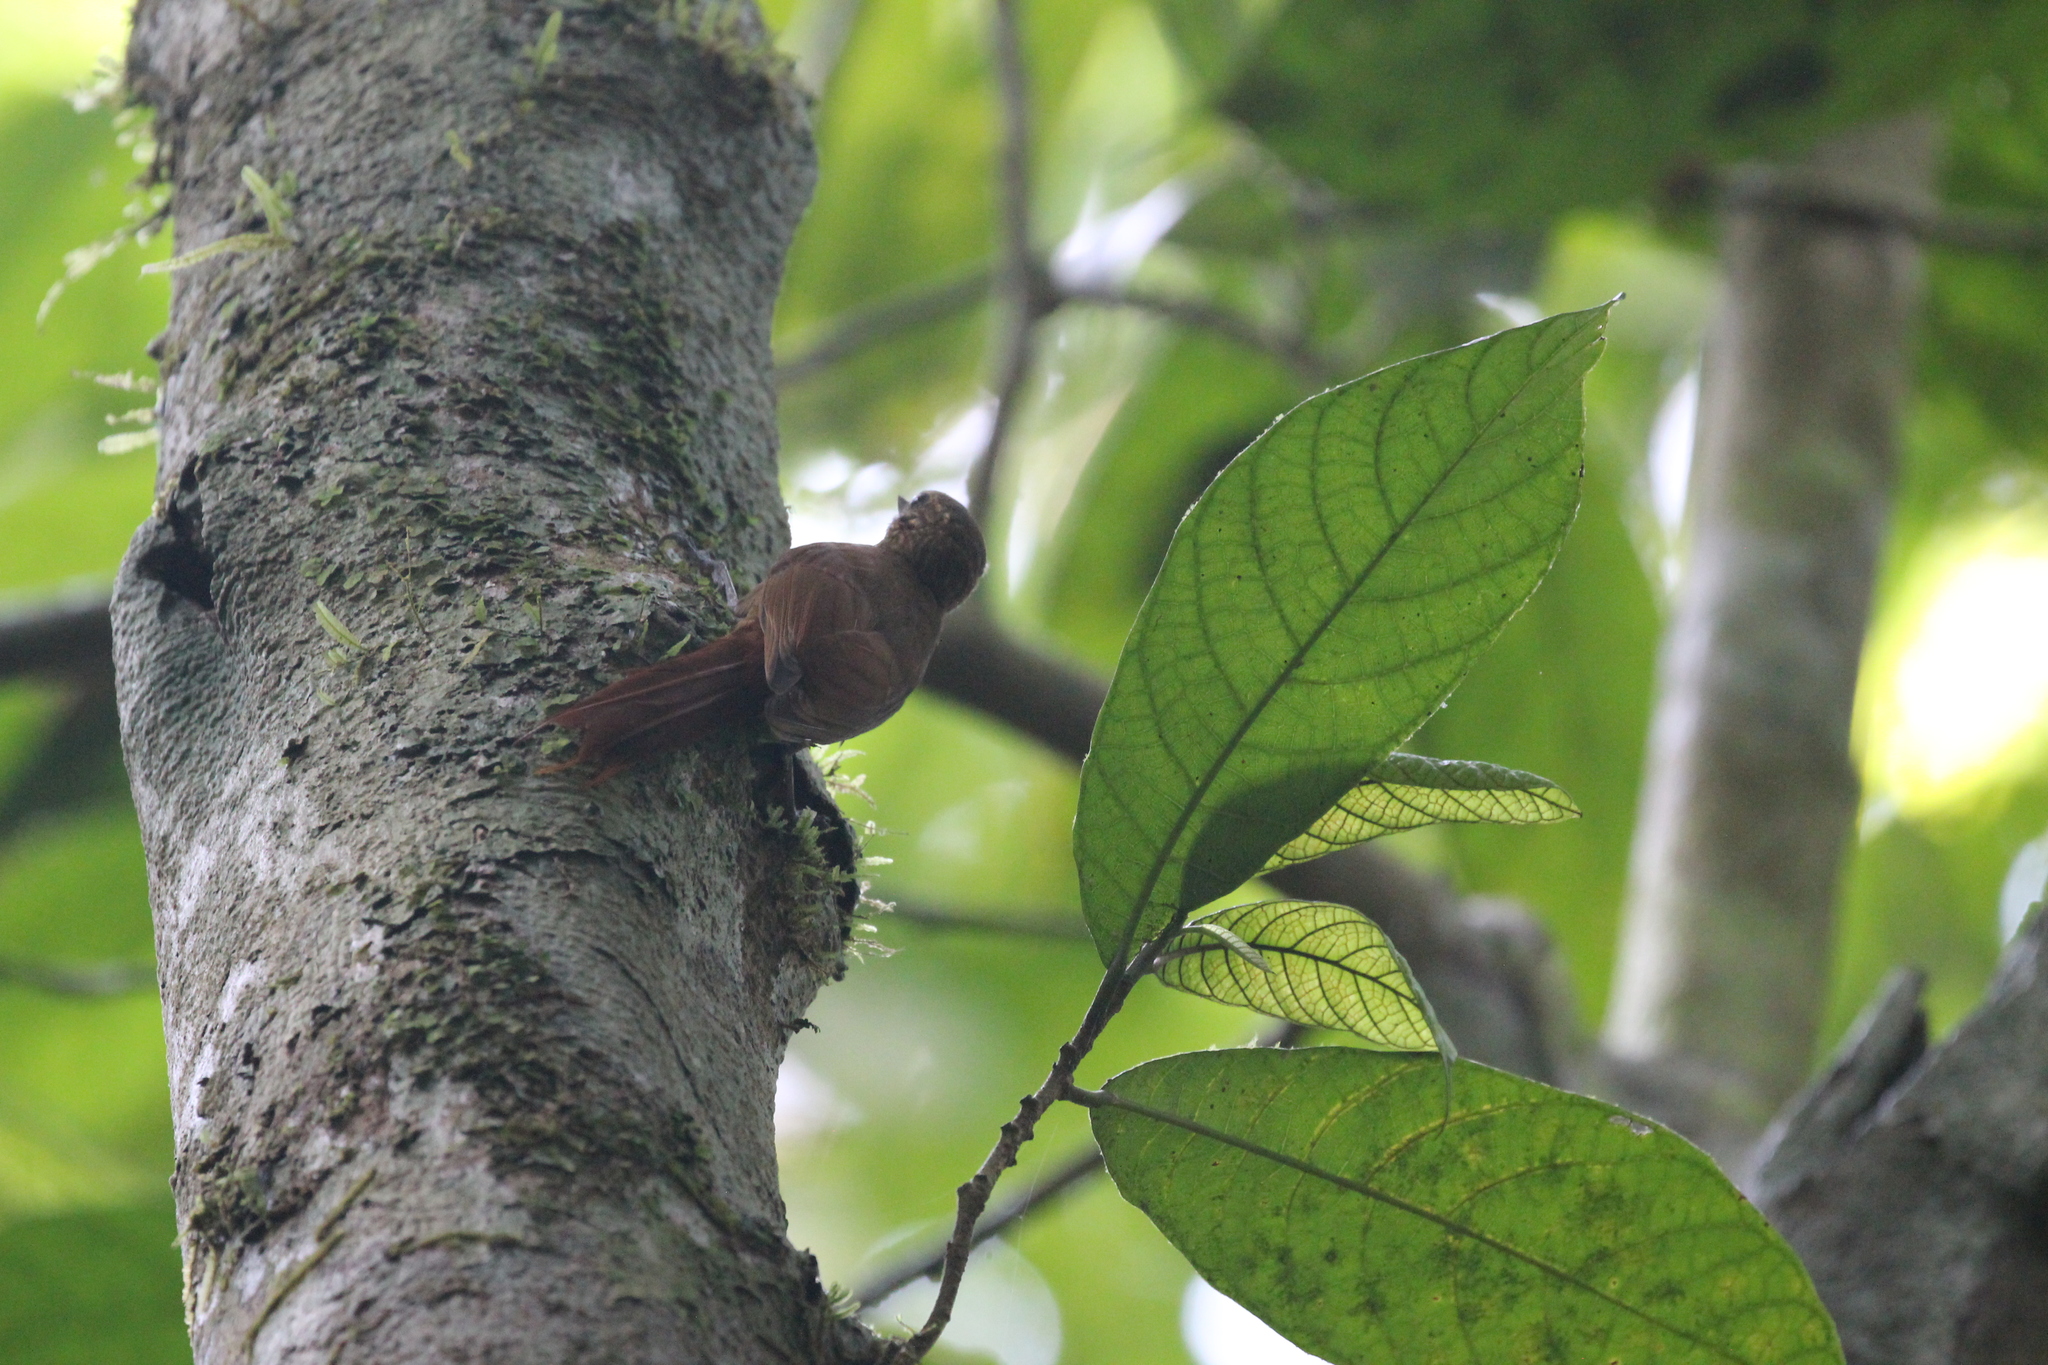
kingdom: Animalia
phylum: Chordata
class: Aves
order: Passeriformes
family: Furnariidae
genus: Glyphorynchus
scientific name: Glyphorynchus spirurus
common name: Wedge-billed woodcreeper
